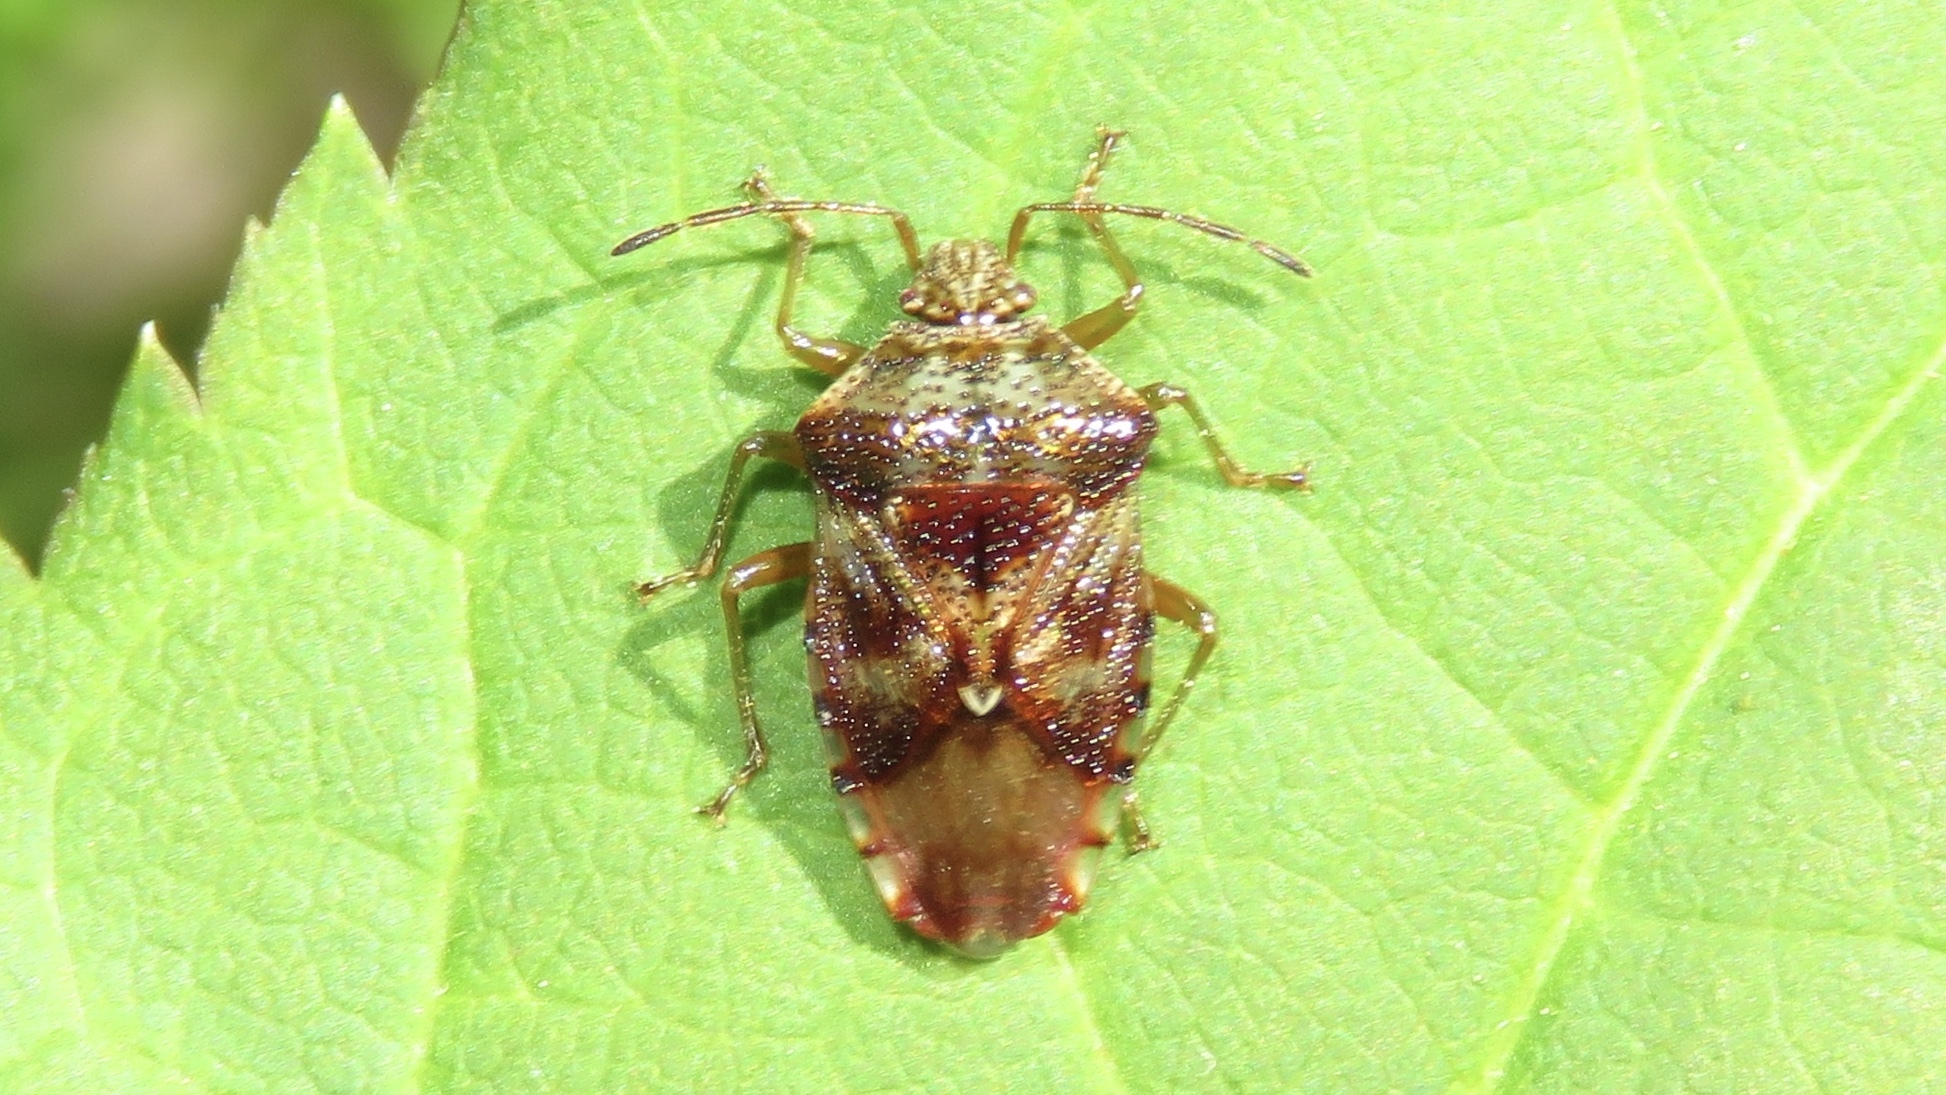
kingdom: Animalia
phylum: Arthropoda
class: Insecta
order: Hemiptera
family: Acanthosomatidae
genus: Elasmucha
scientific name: Elasmucha lateralis
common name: Shield bug
